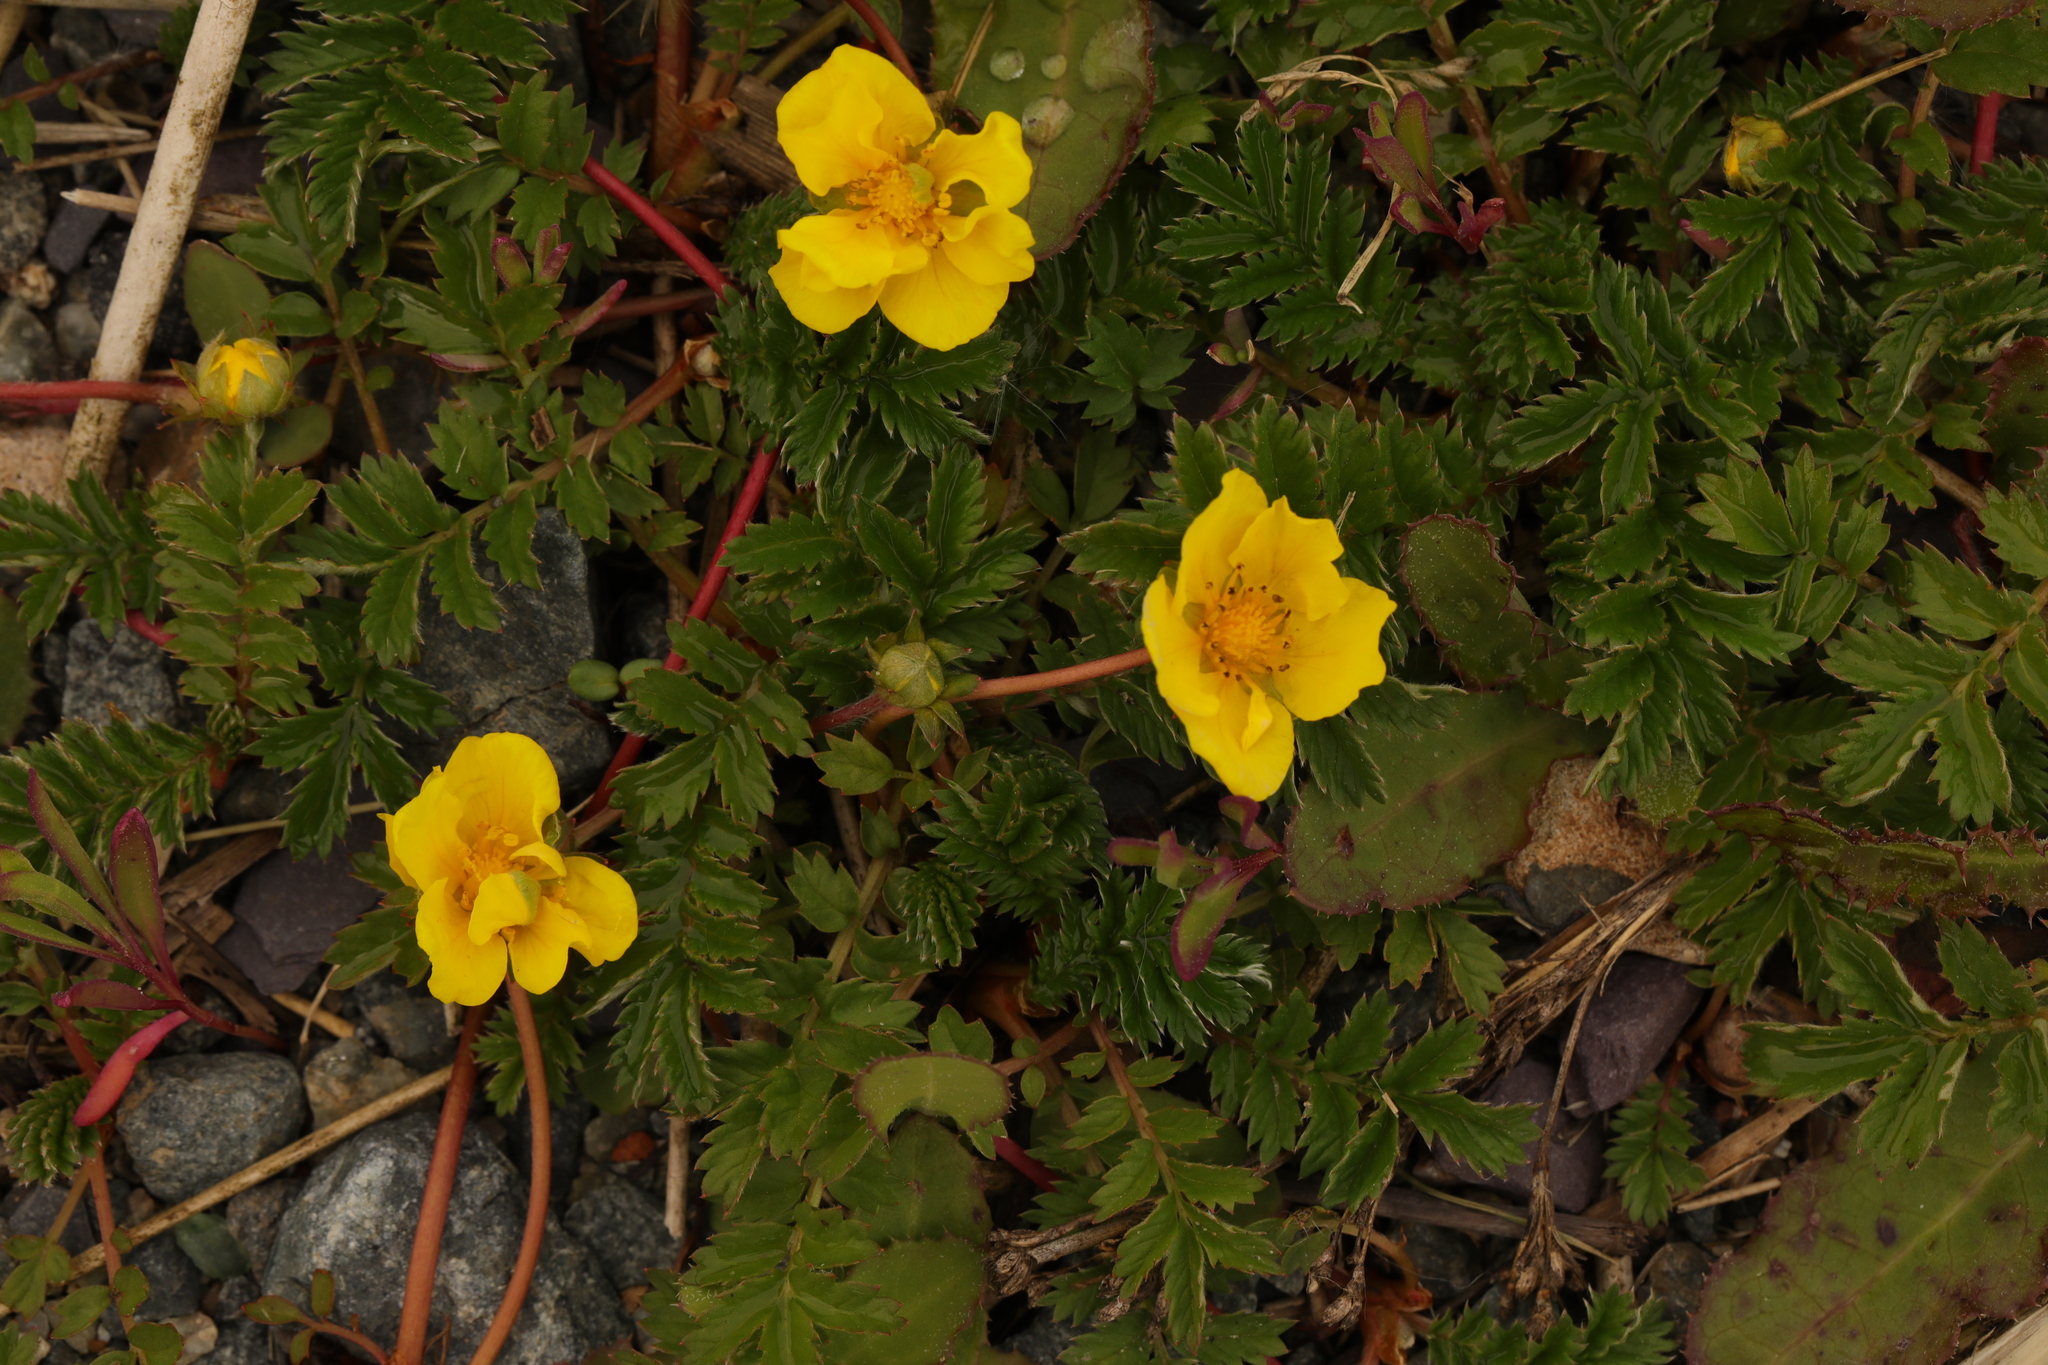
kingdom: Plantae
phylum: Tracheophyta
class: Magnoliopsida
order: Rosales
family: Rosaceae
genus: Argentina
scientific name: Argentina anserina
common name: Common silverweed
